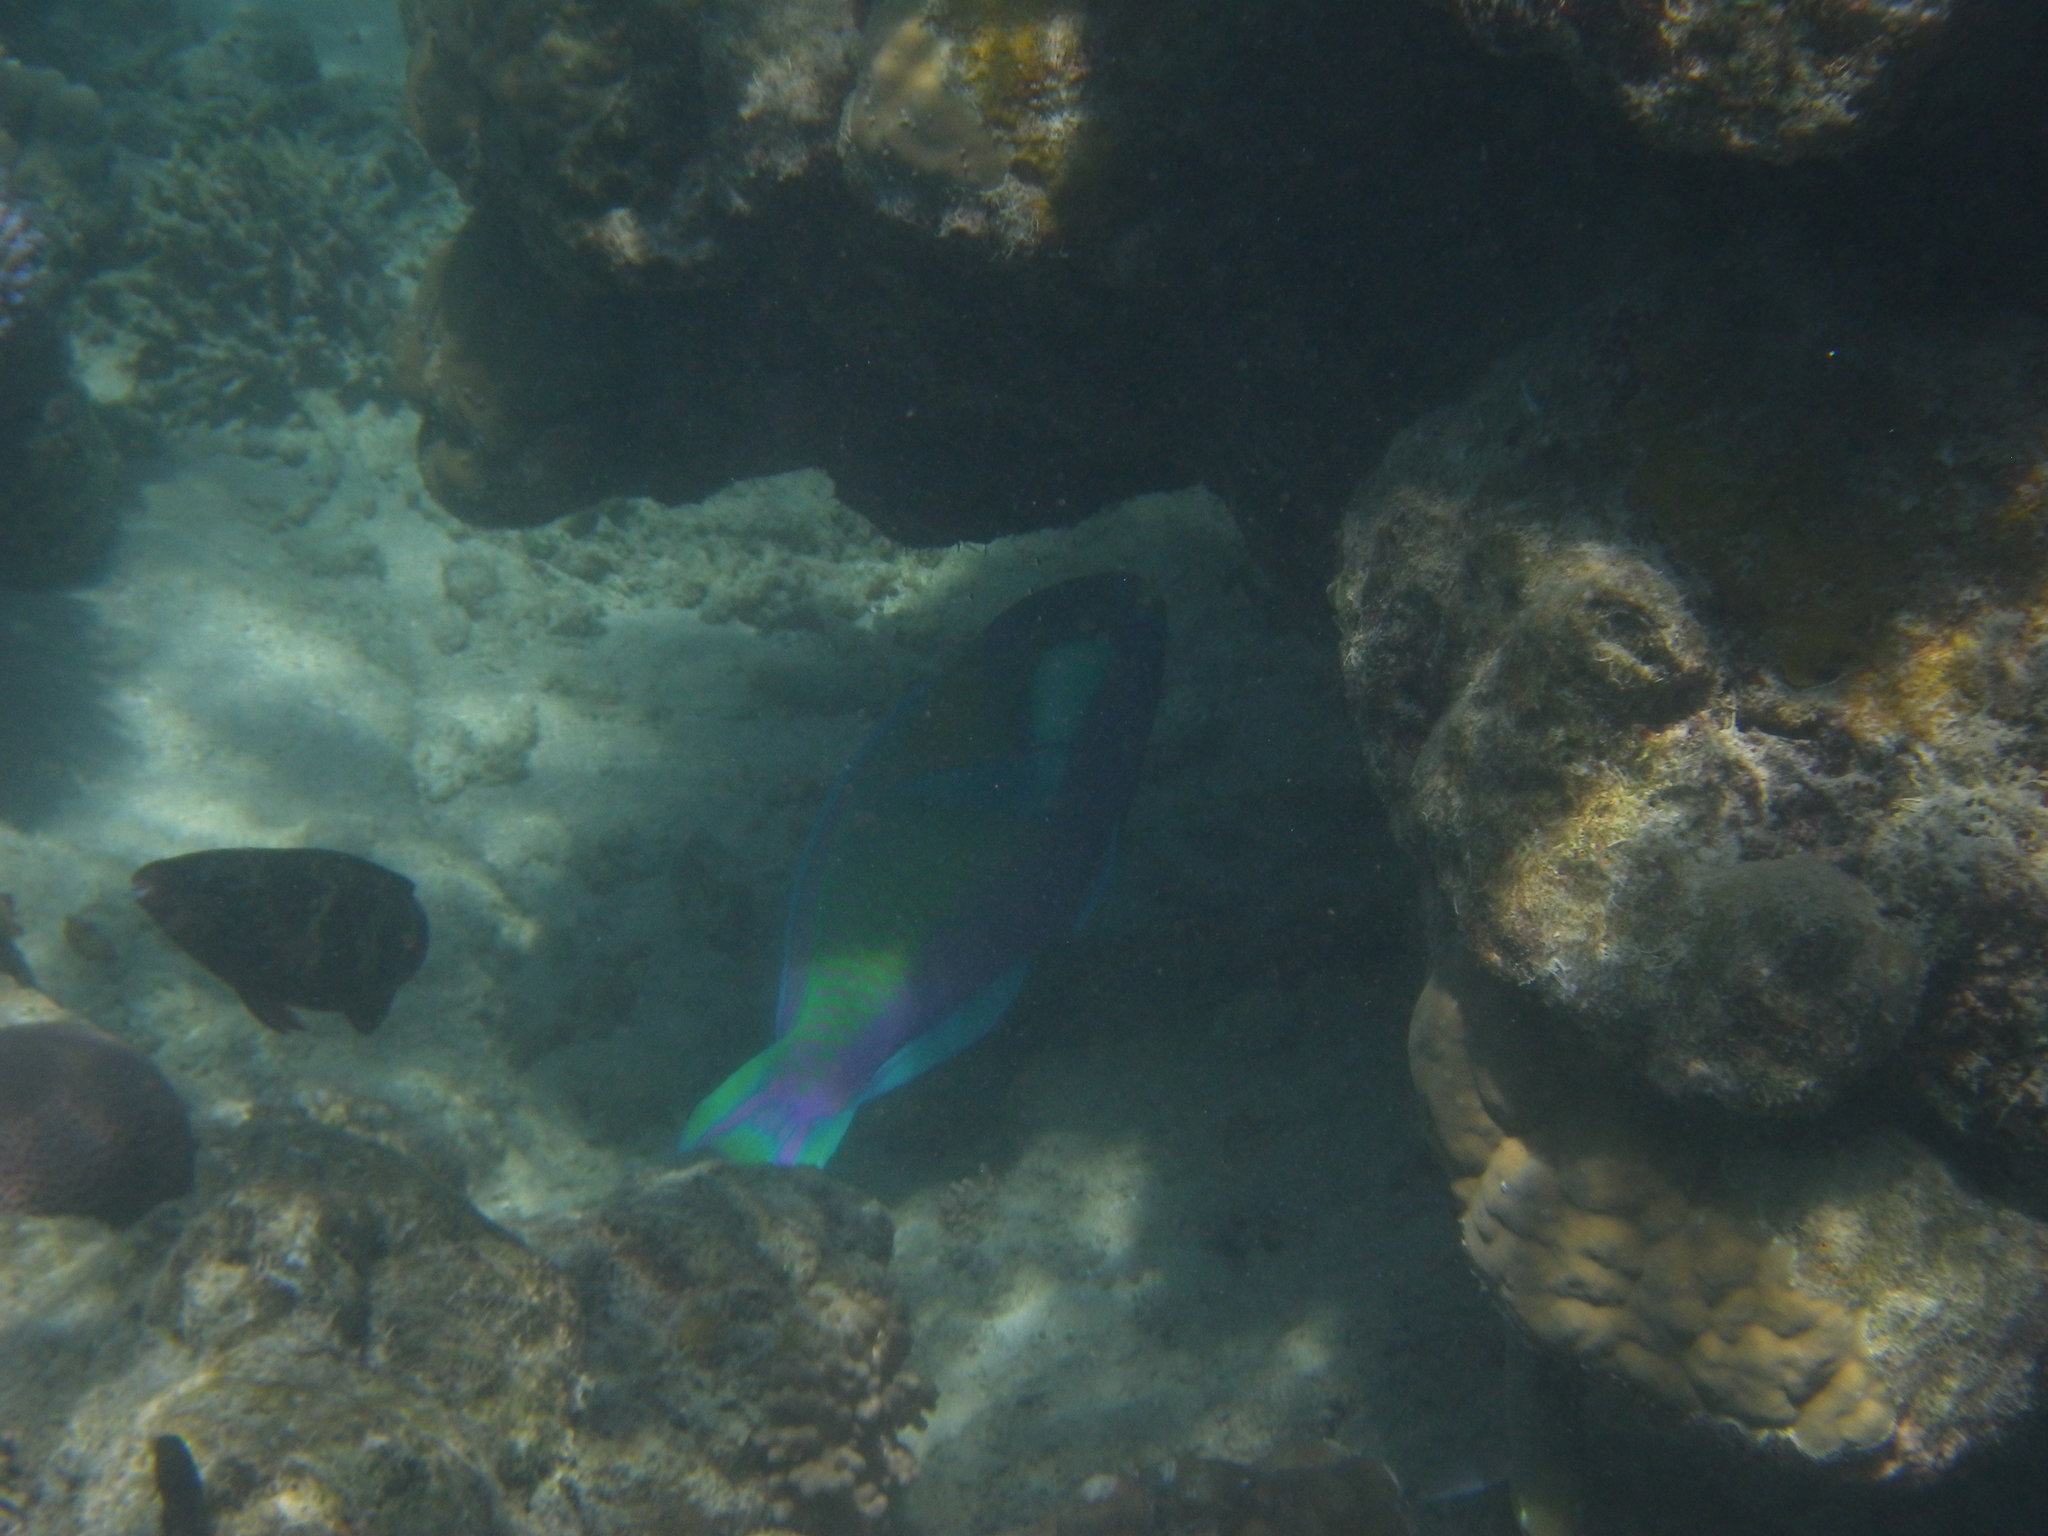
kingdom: Animalia
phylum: Chordata
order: Perciformes
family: Scaridae
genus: Chlorurus
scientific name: Chlorurus bleekeri
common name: Bleeker's parrotfish
